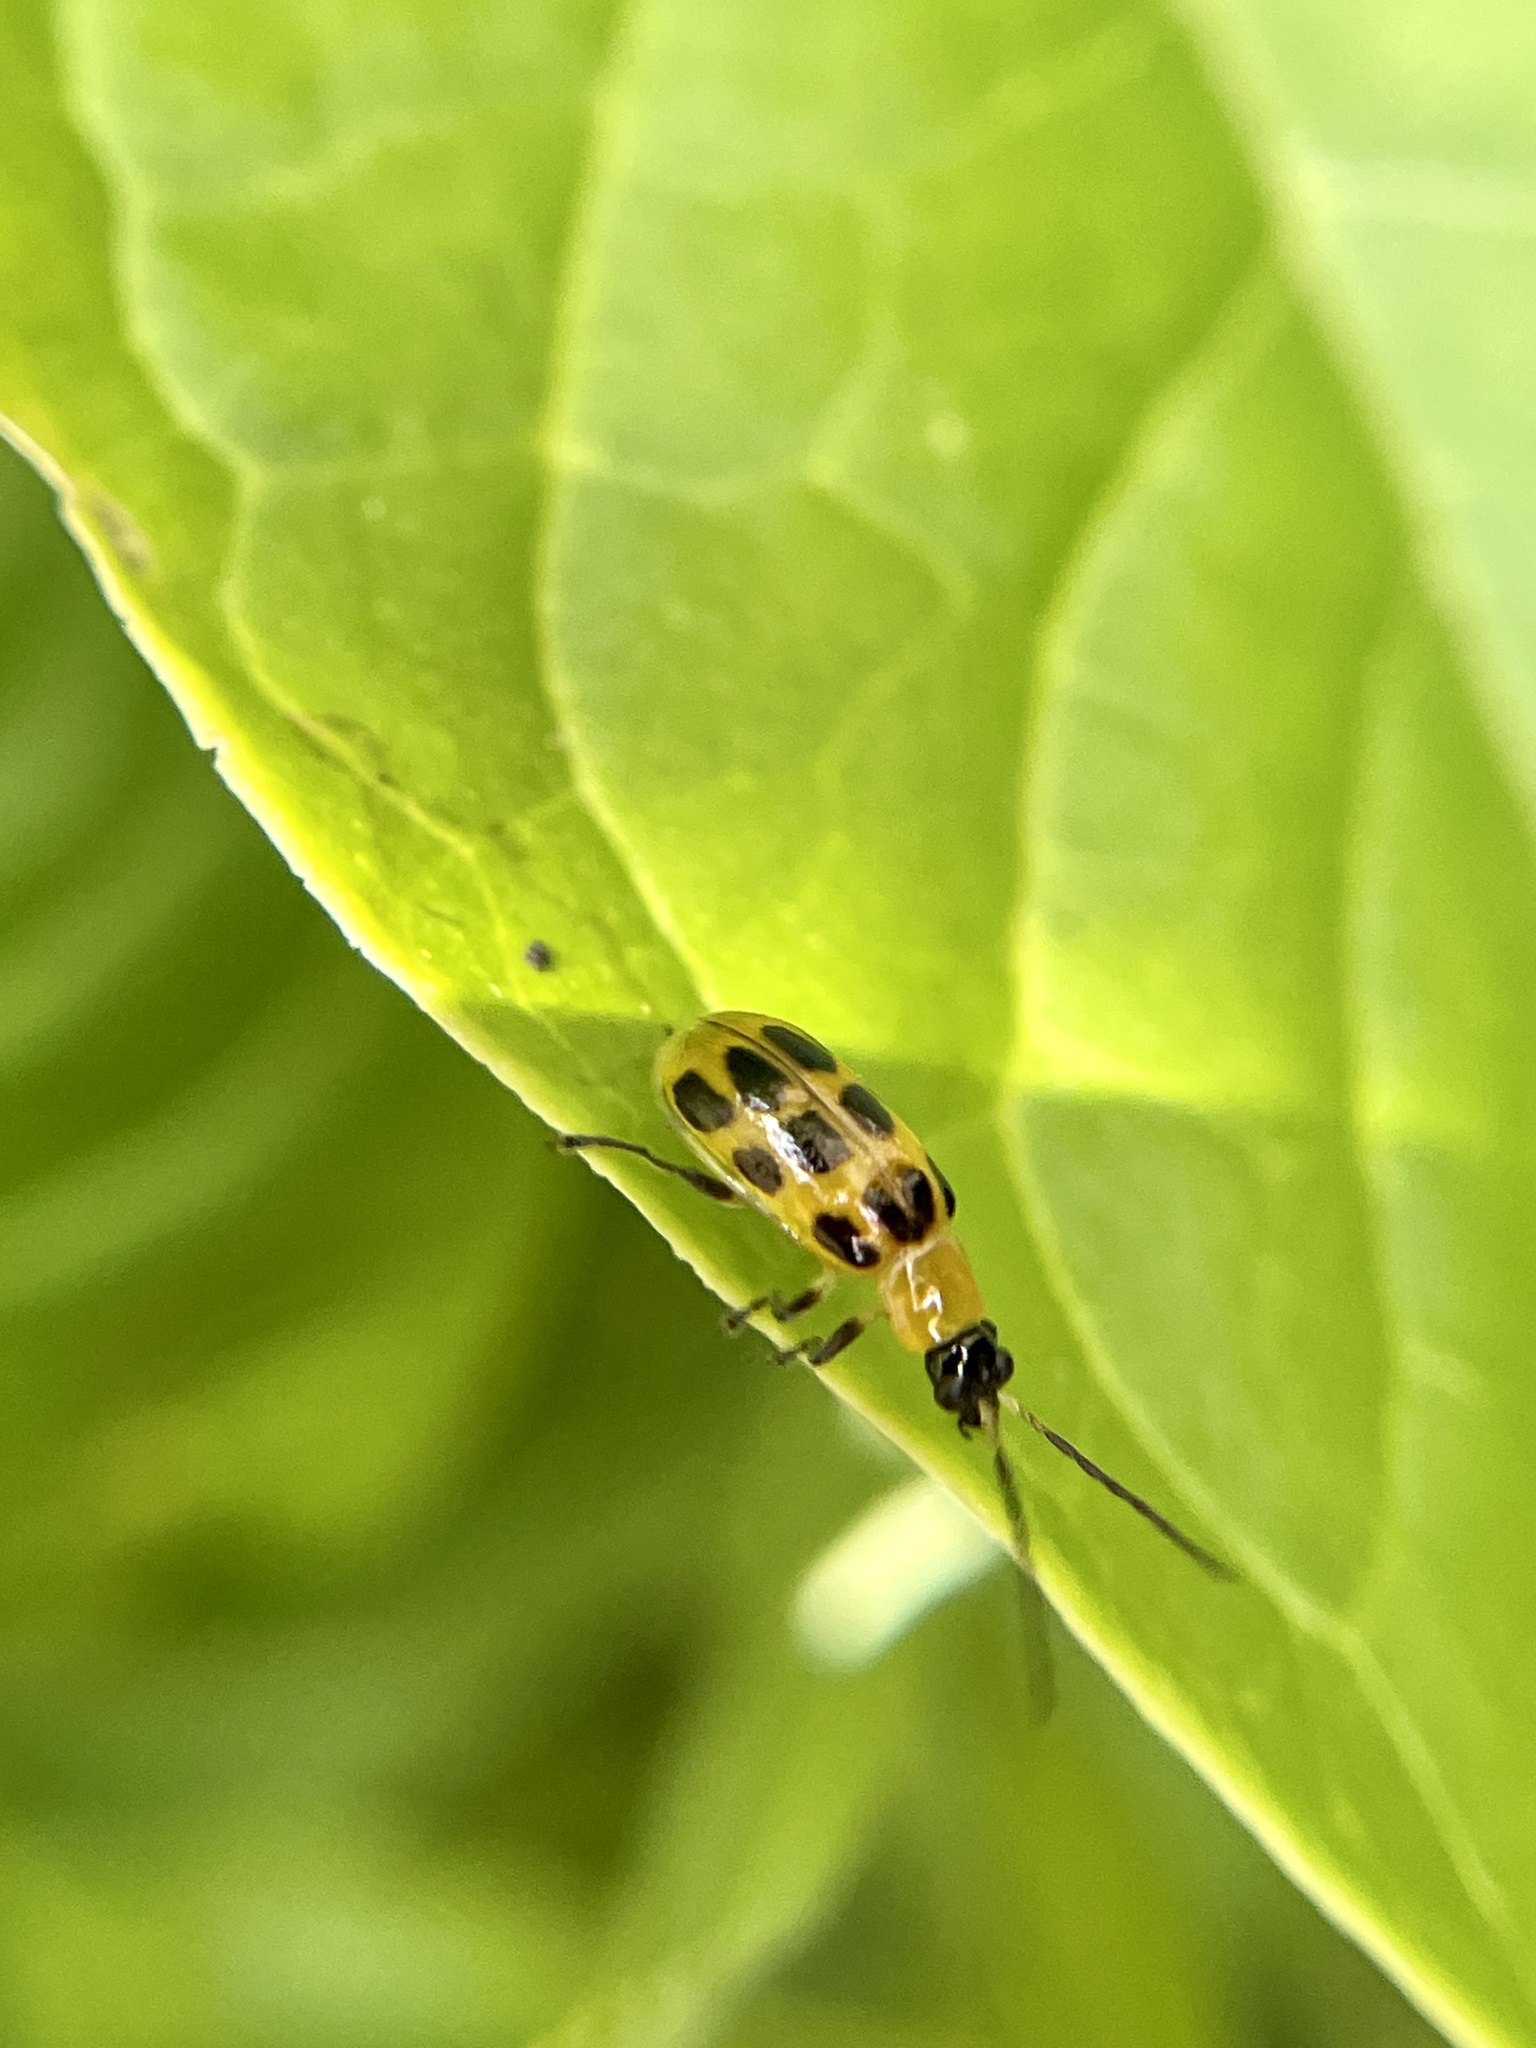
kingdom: Animalia
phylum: Arthropoda
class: Insecta
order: Coleoptera
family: Chrysomelidae
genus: Diabrotica
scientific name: Diabrotica undecimpunctata
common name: Spotted cucumber beetle
